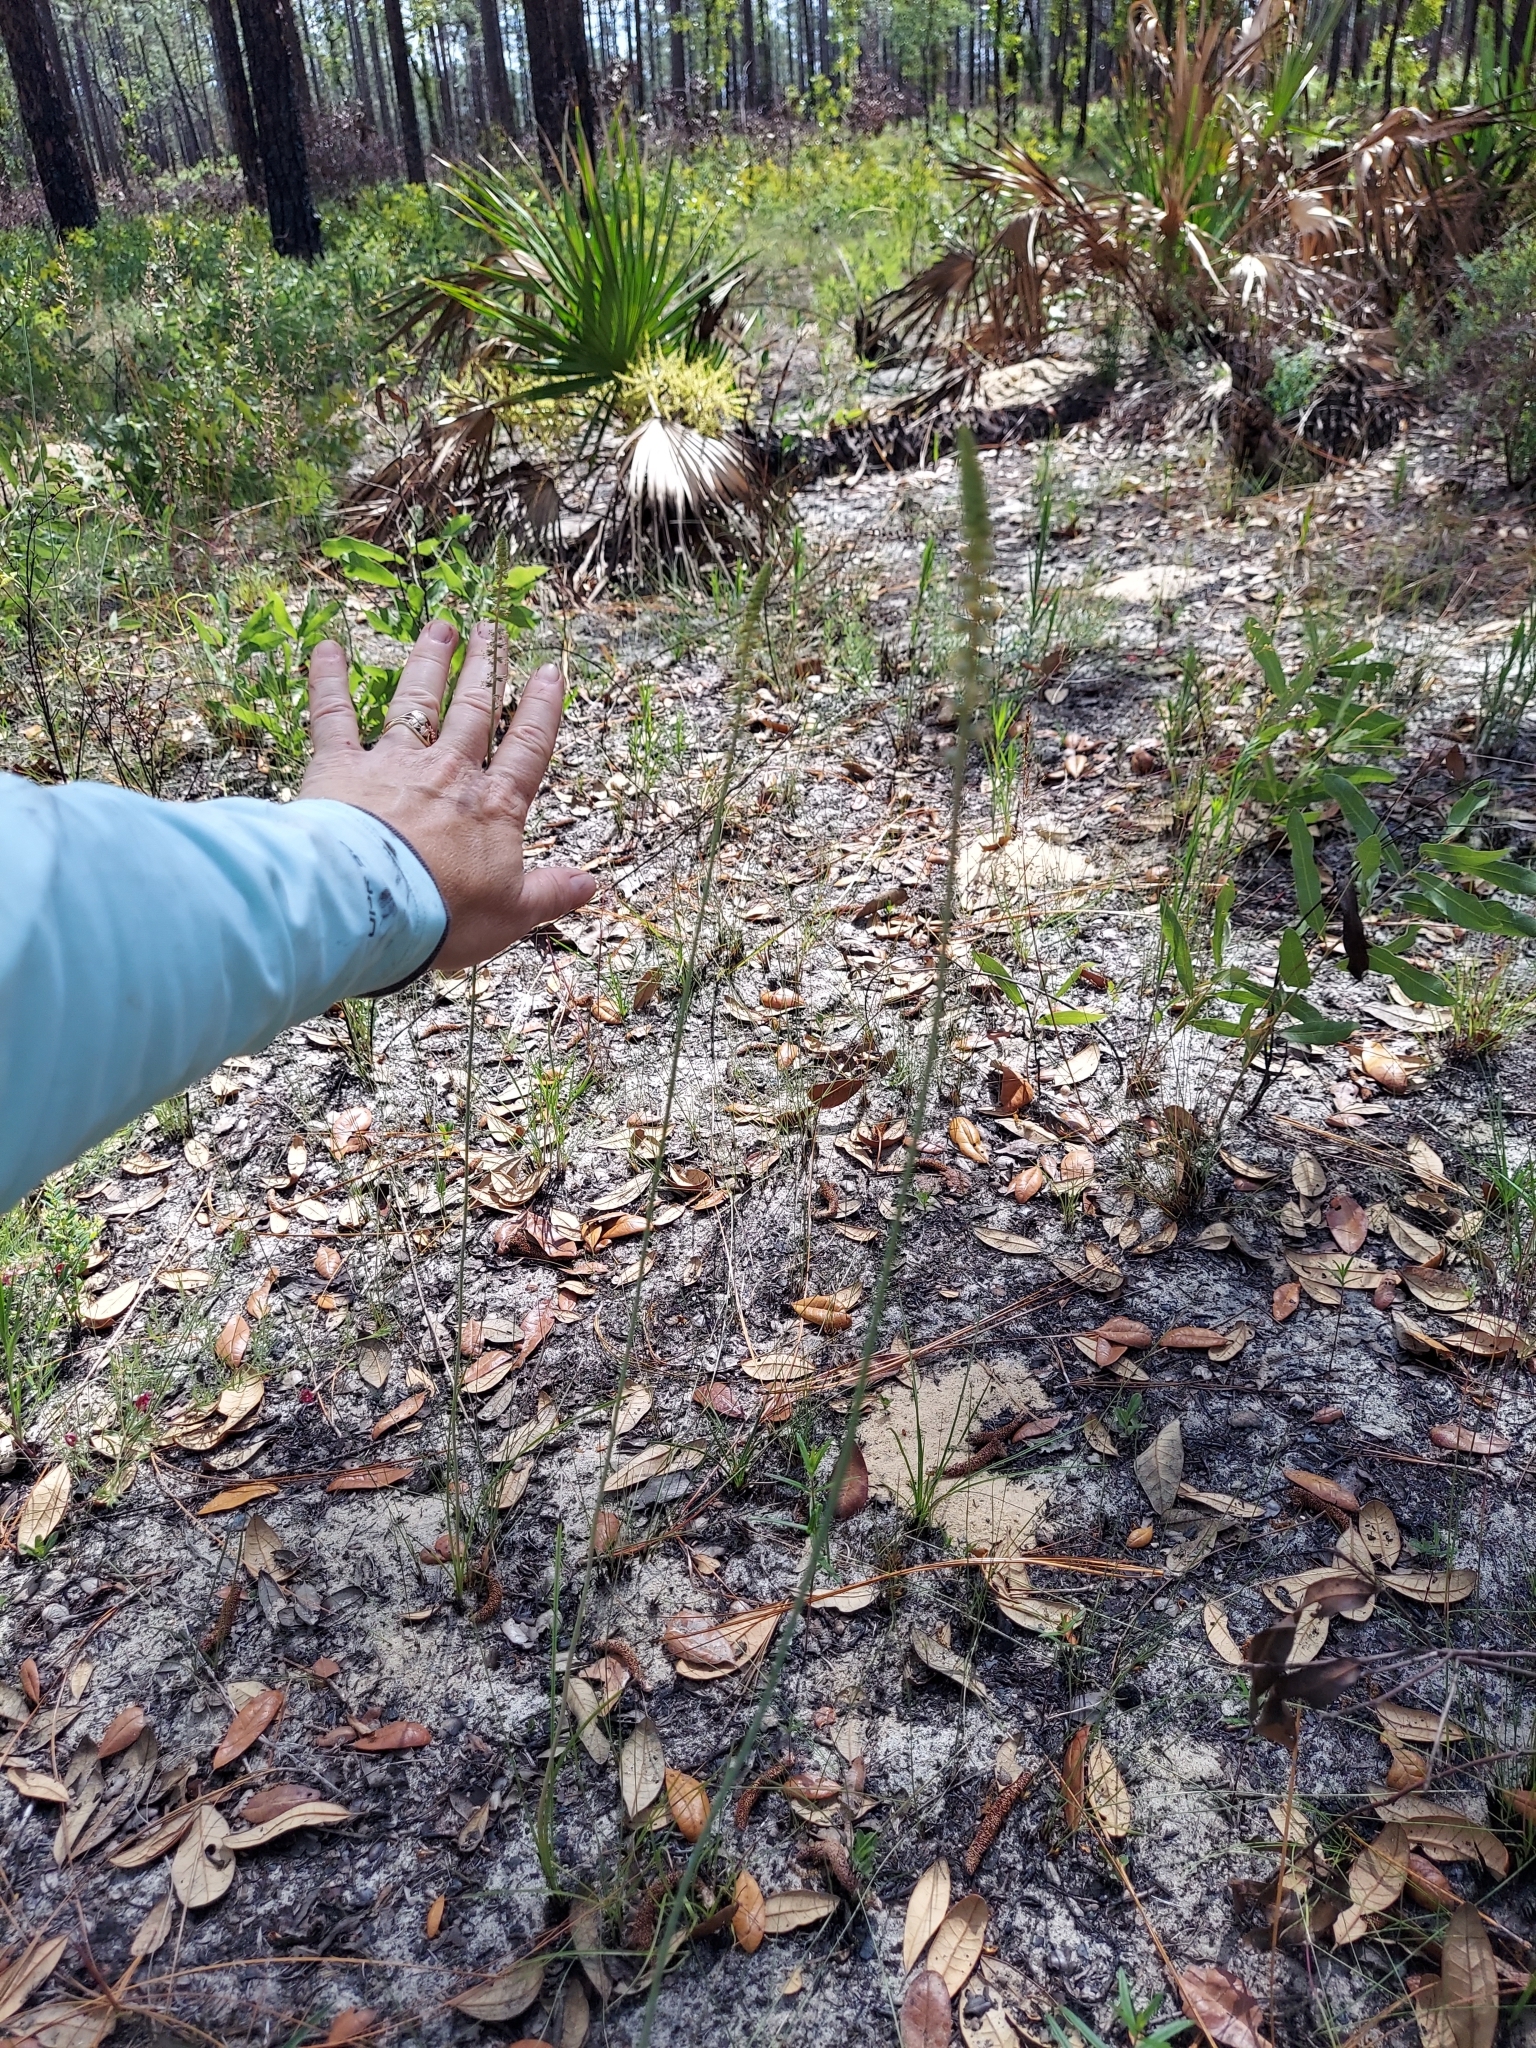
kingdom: Plantae
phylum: Tracheophyta
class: Liliopsida
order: Liliales
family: Melanthiaceae
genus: Schoenocaulon
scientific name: Schoenocaulon dubium
